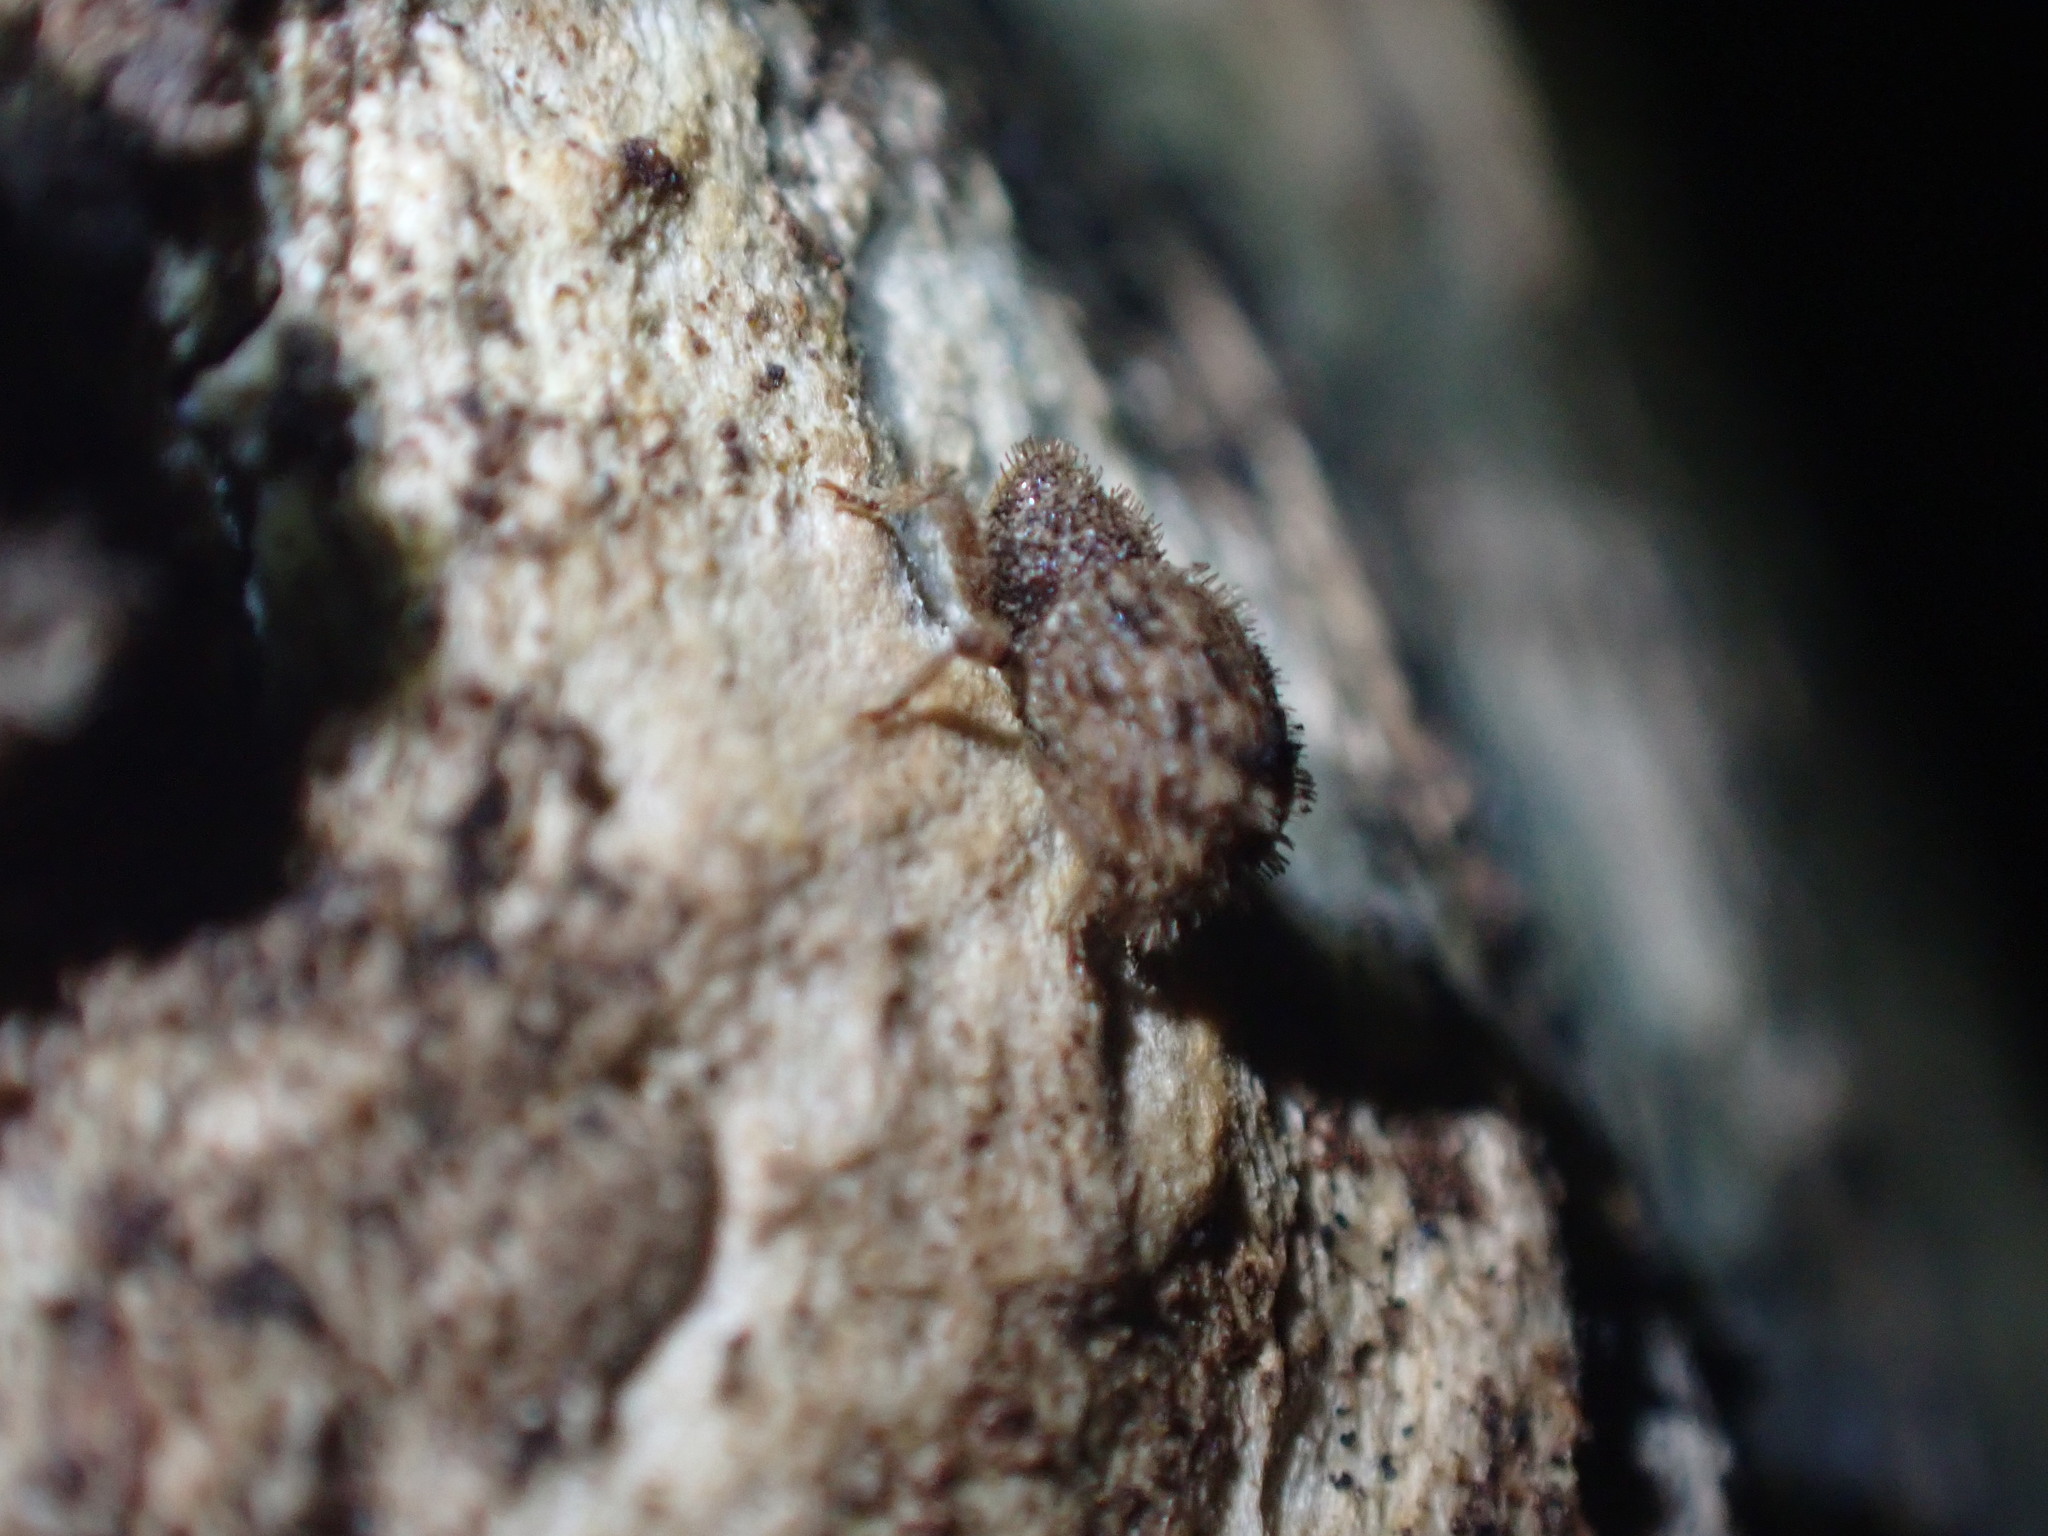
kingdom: Animalia
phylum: Arthropoda
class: Insecta
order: Coleoptera
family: Curculionidae
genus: Synacalles
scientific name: Synacalles peelensis
